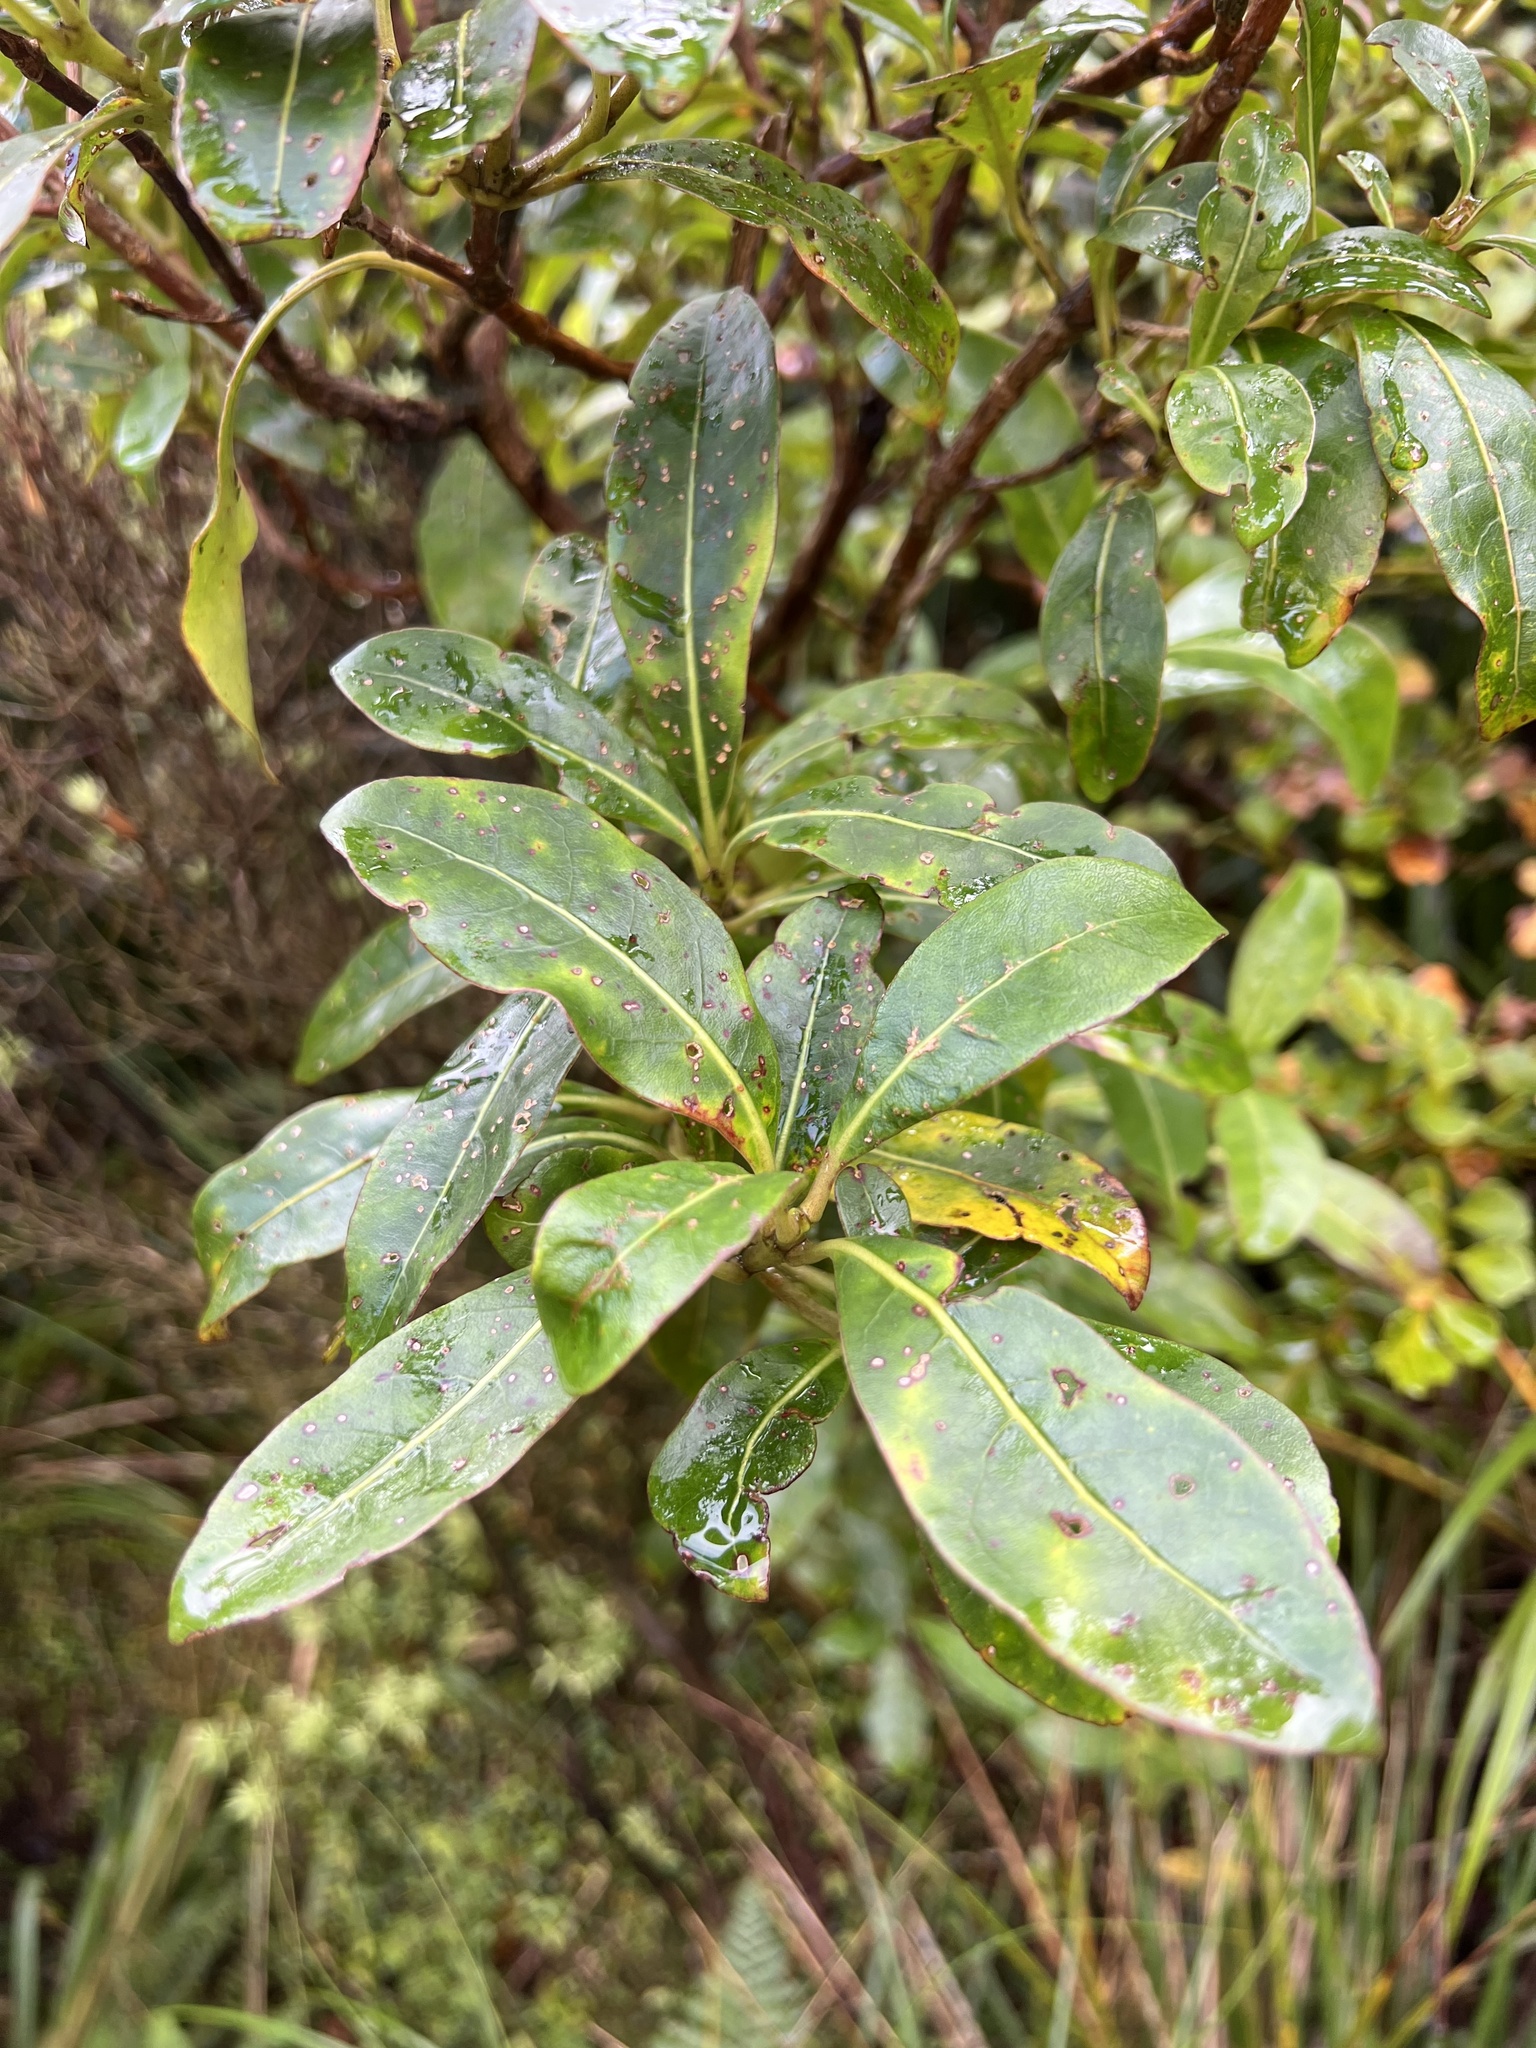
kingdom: Plantae
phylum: Tracheophyta
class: Magnoliopsida
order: Gentianales
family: Rubiaceae
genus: Coprosma
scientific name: Coprosma dodonaeifolia
